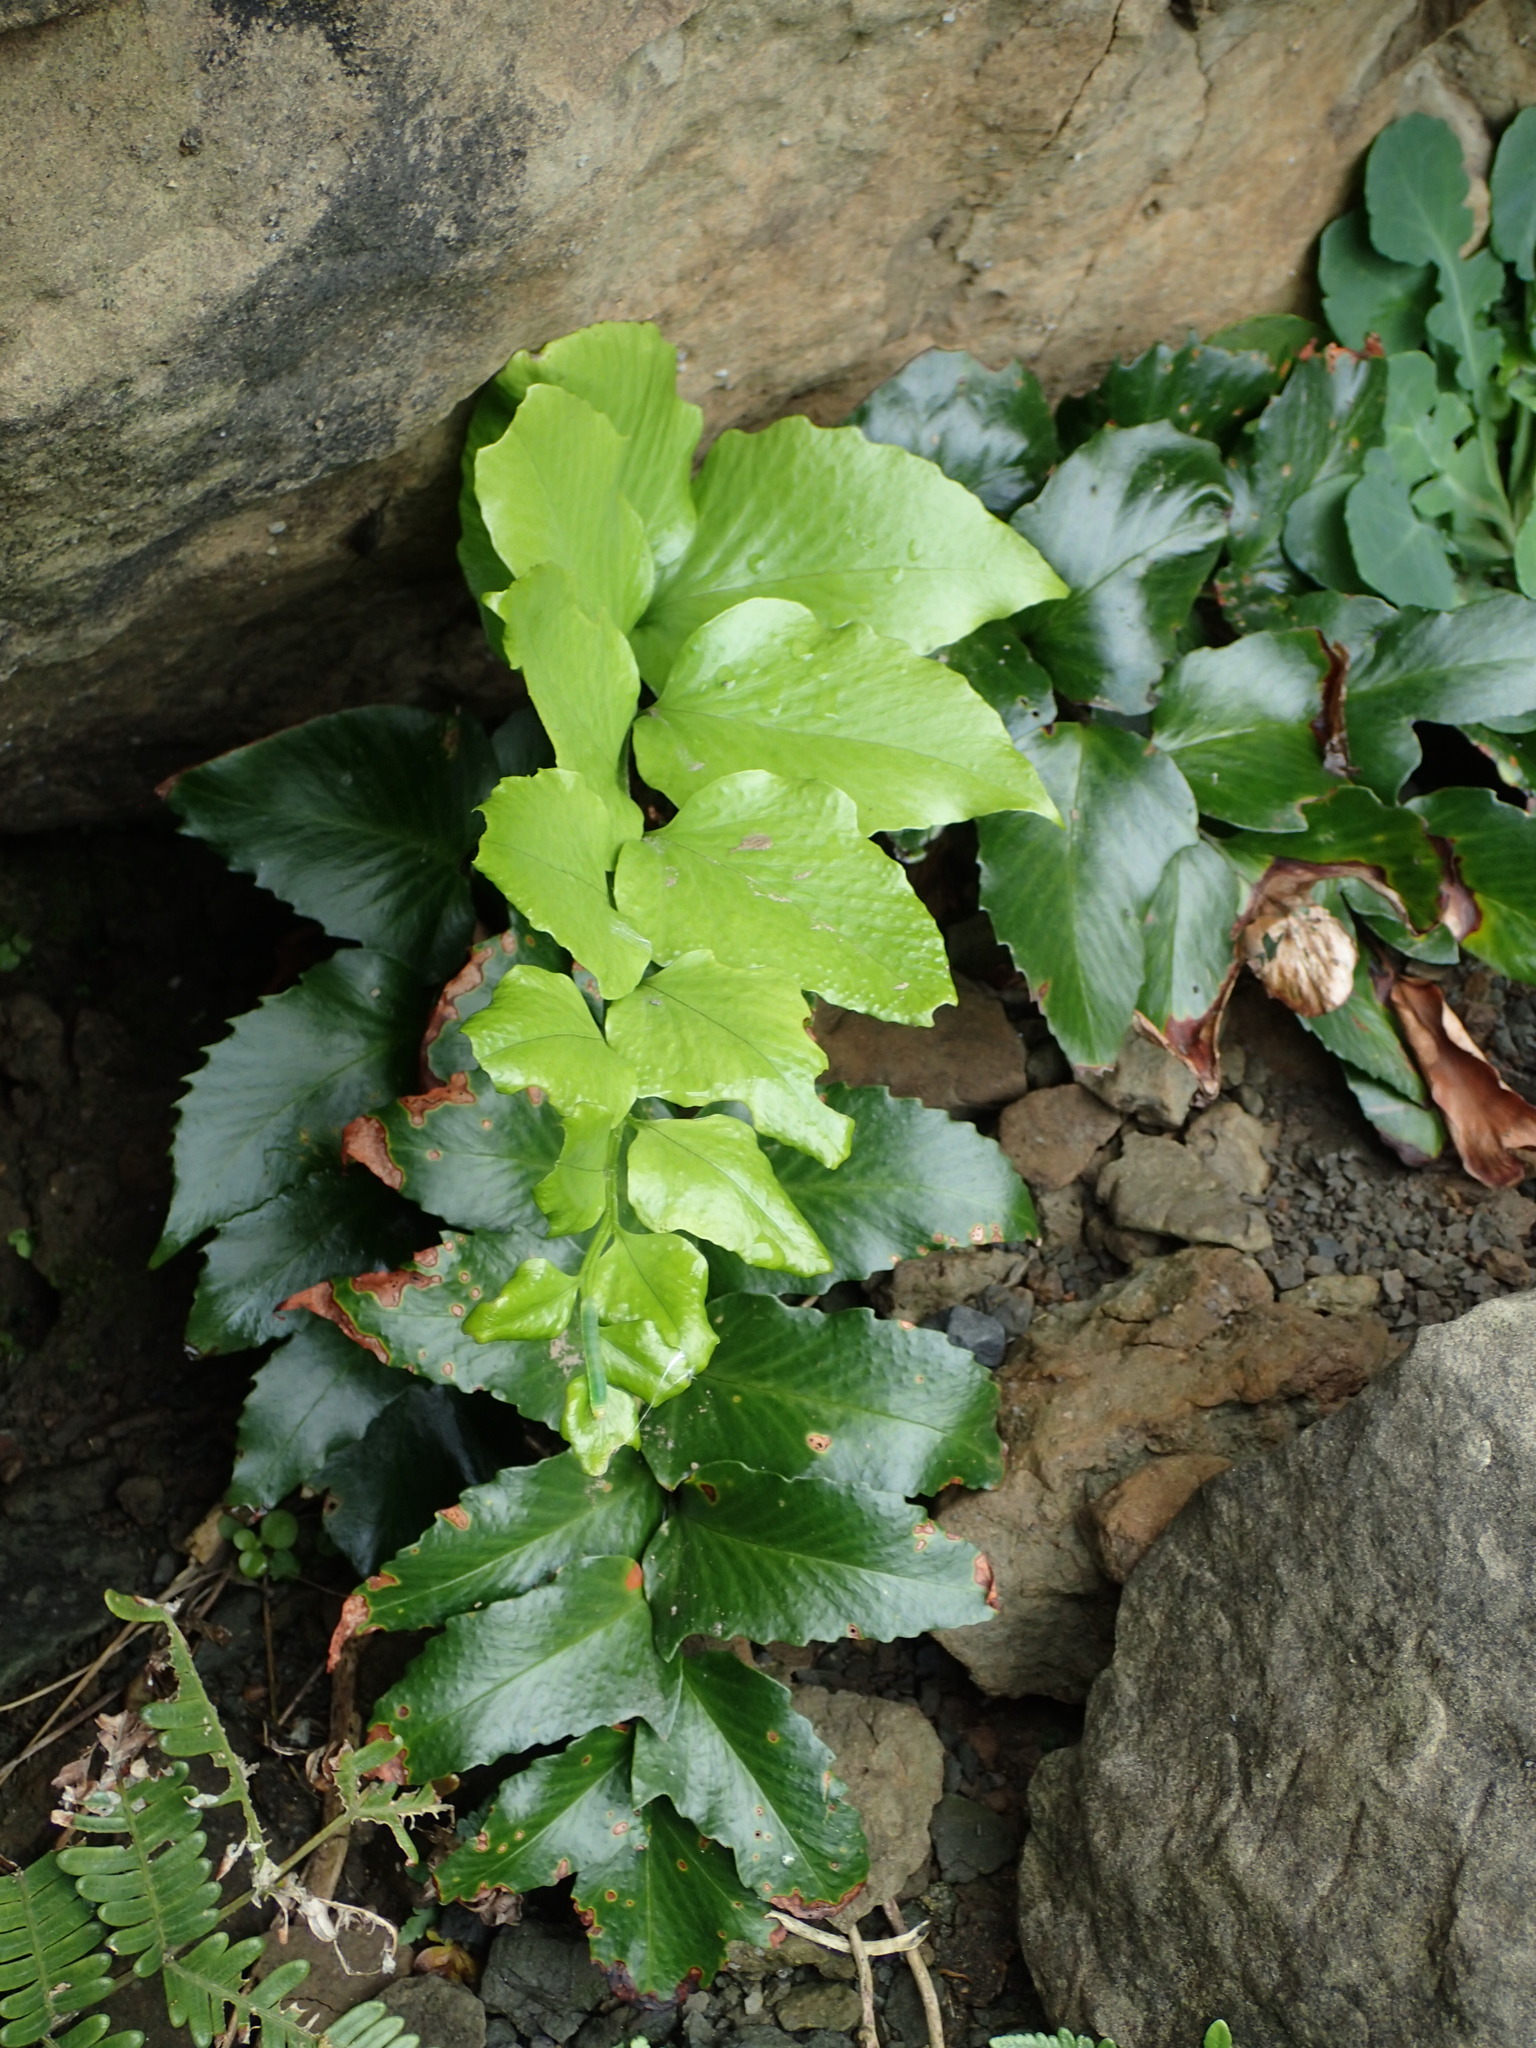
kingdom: Plantae
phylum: Tracheophyta
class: Polypodiopsida
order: Polypodiales
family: Dryopteridaceae
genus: Cyrtomium
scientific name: Cyrtomium falcatum
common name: House holly-fern
